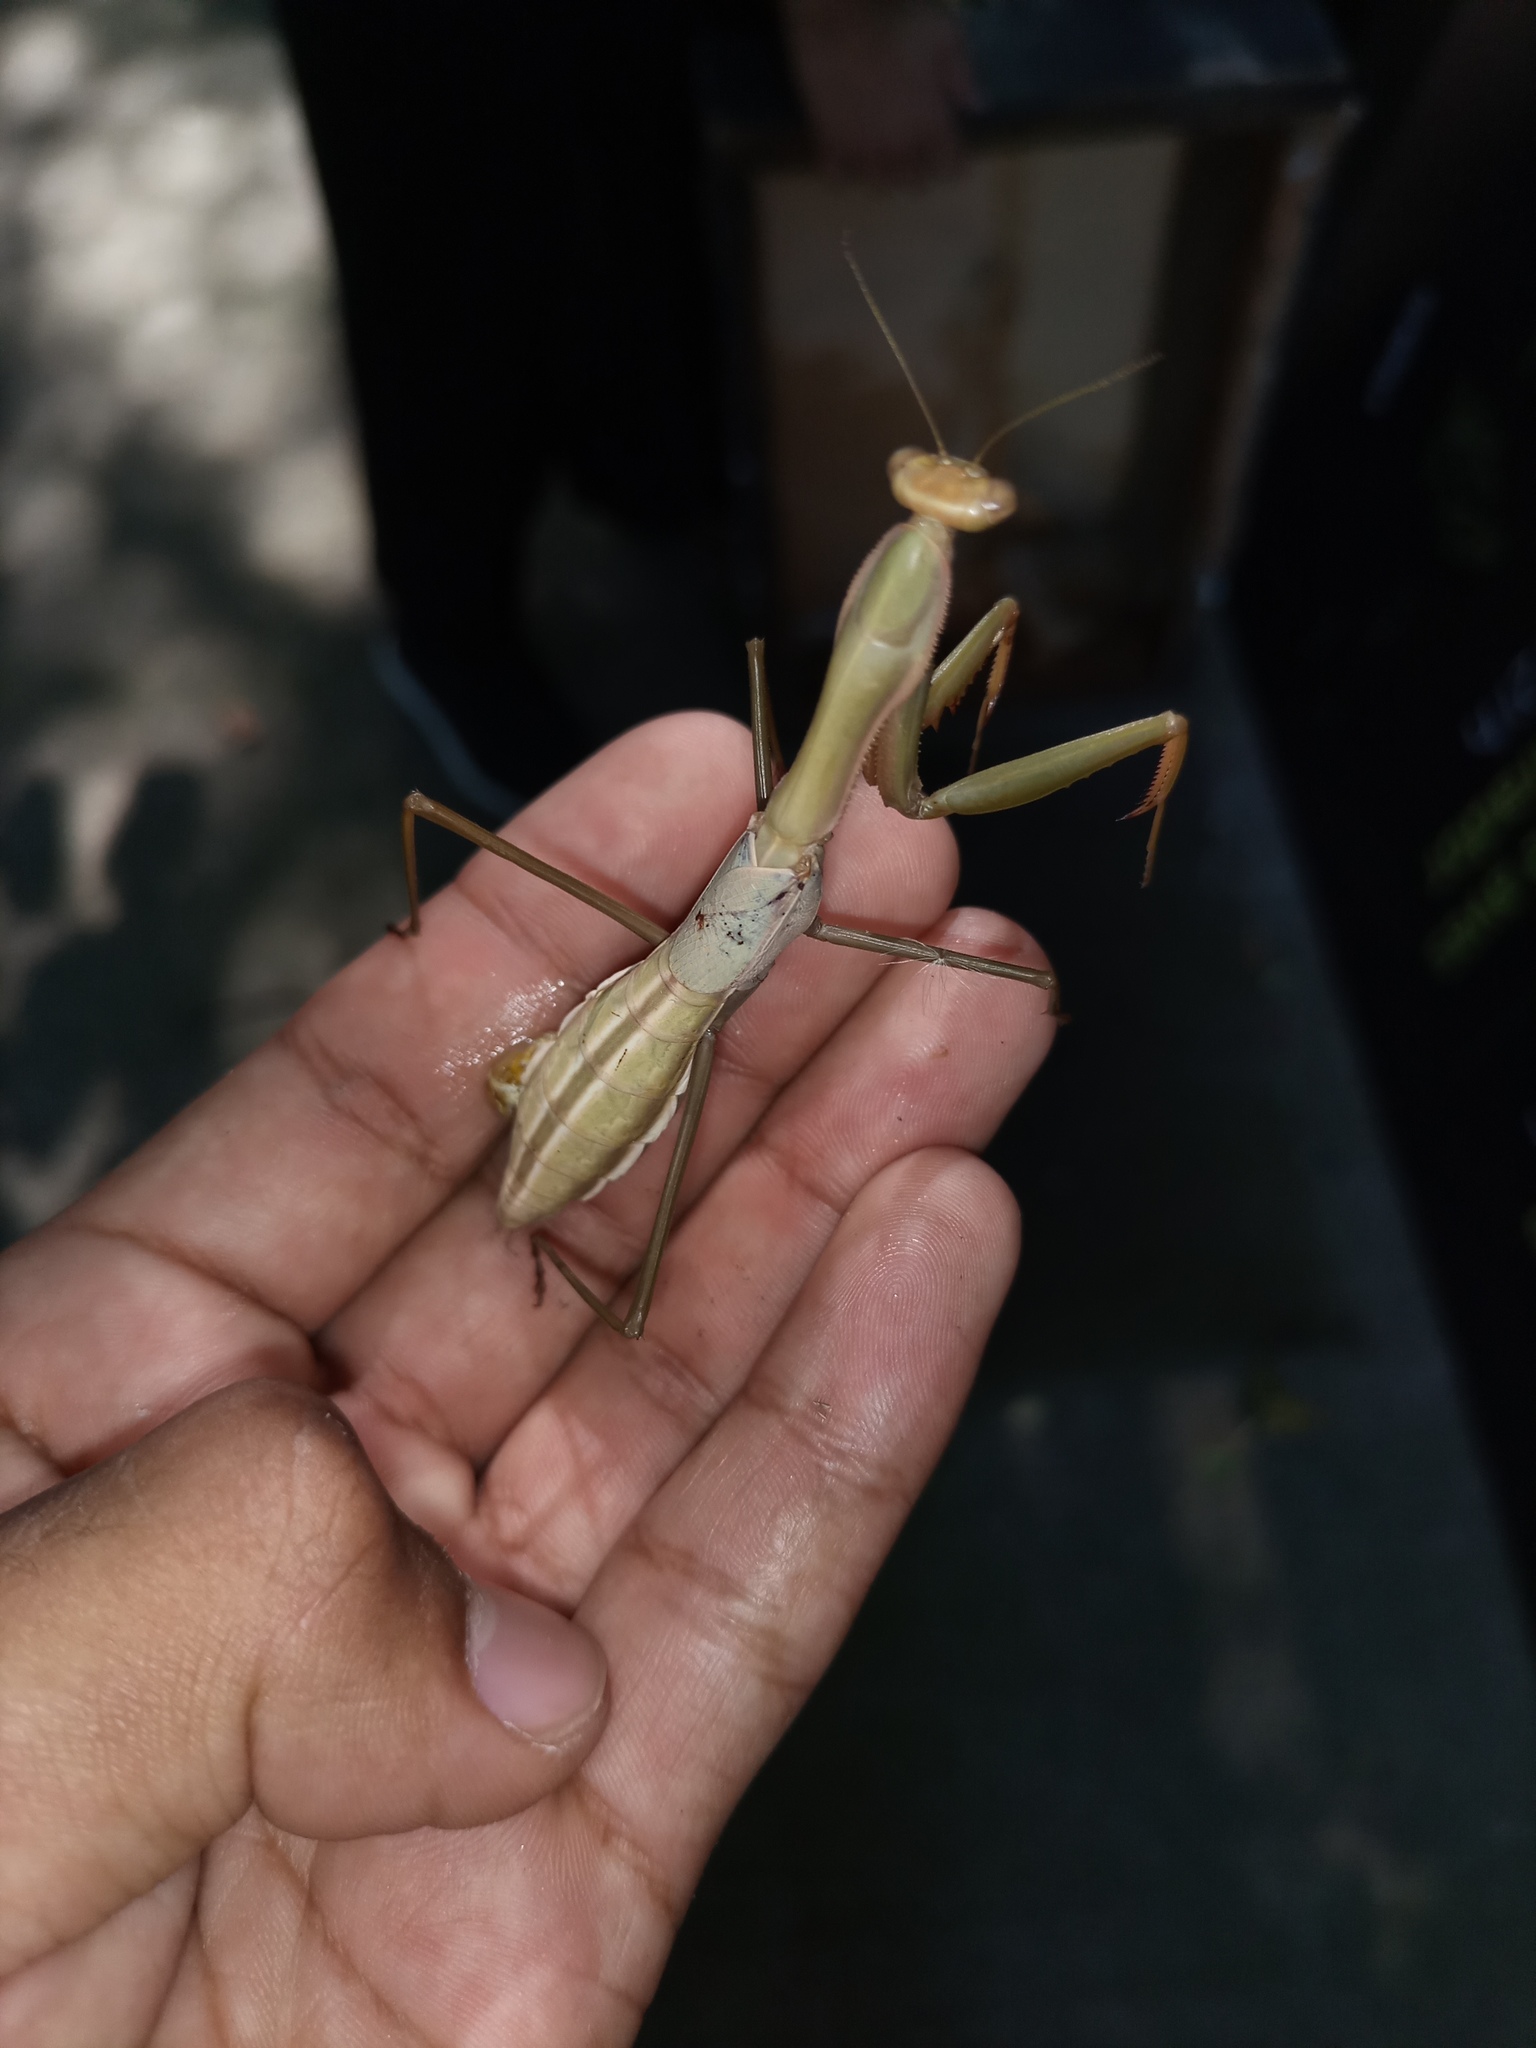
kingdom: Animalia
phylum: Arthropoda
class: Insecta
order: Mantodea
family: Coptopterygidae
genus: Coptopteryx
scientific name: Coptopteryx argentina
